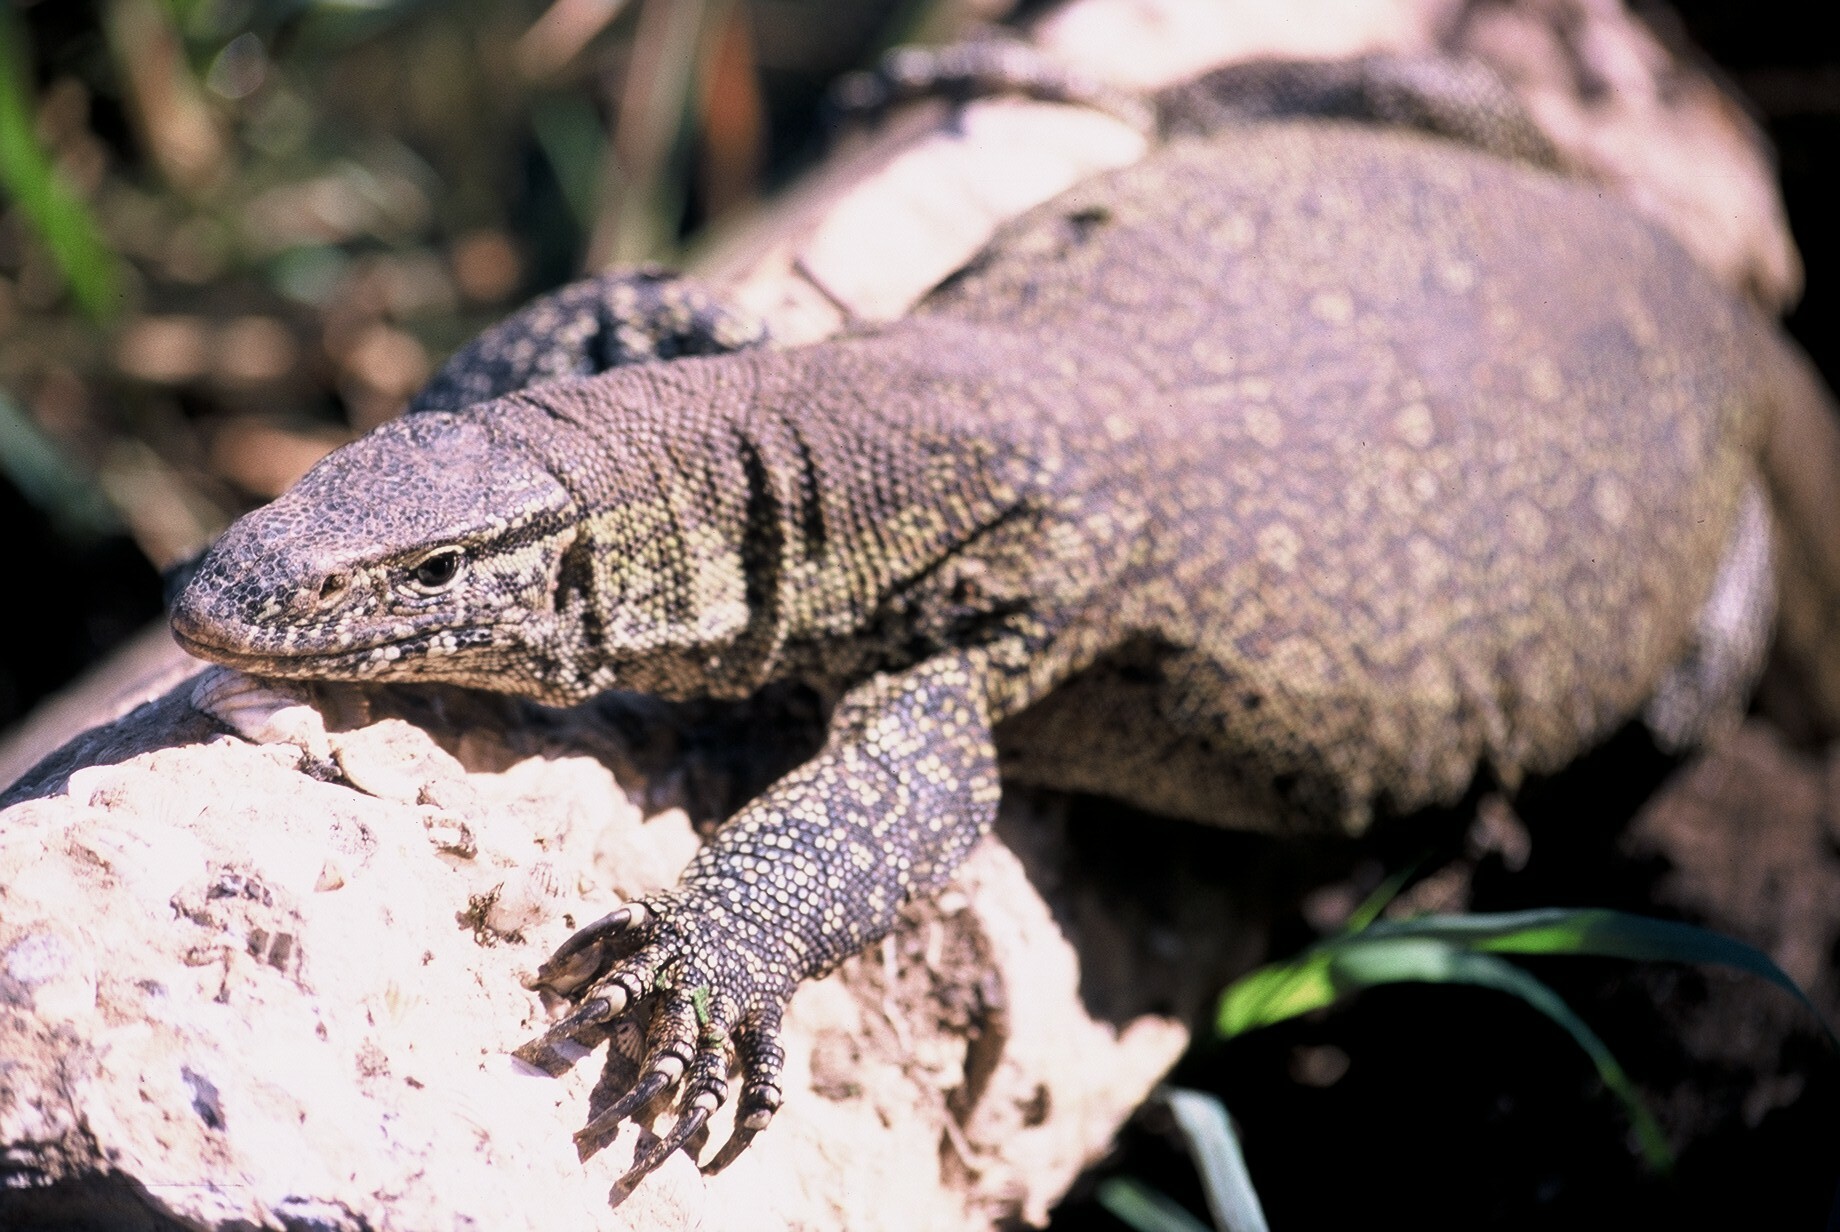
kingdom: Animalia
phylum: Chordata
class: Squamata
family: Varanidae
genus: Varanus
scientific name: Varanus niloticus
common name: Nile monitor
